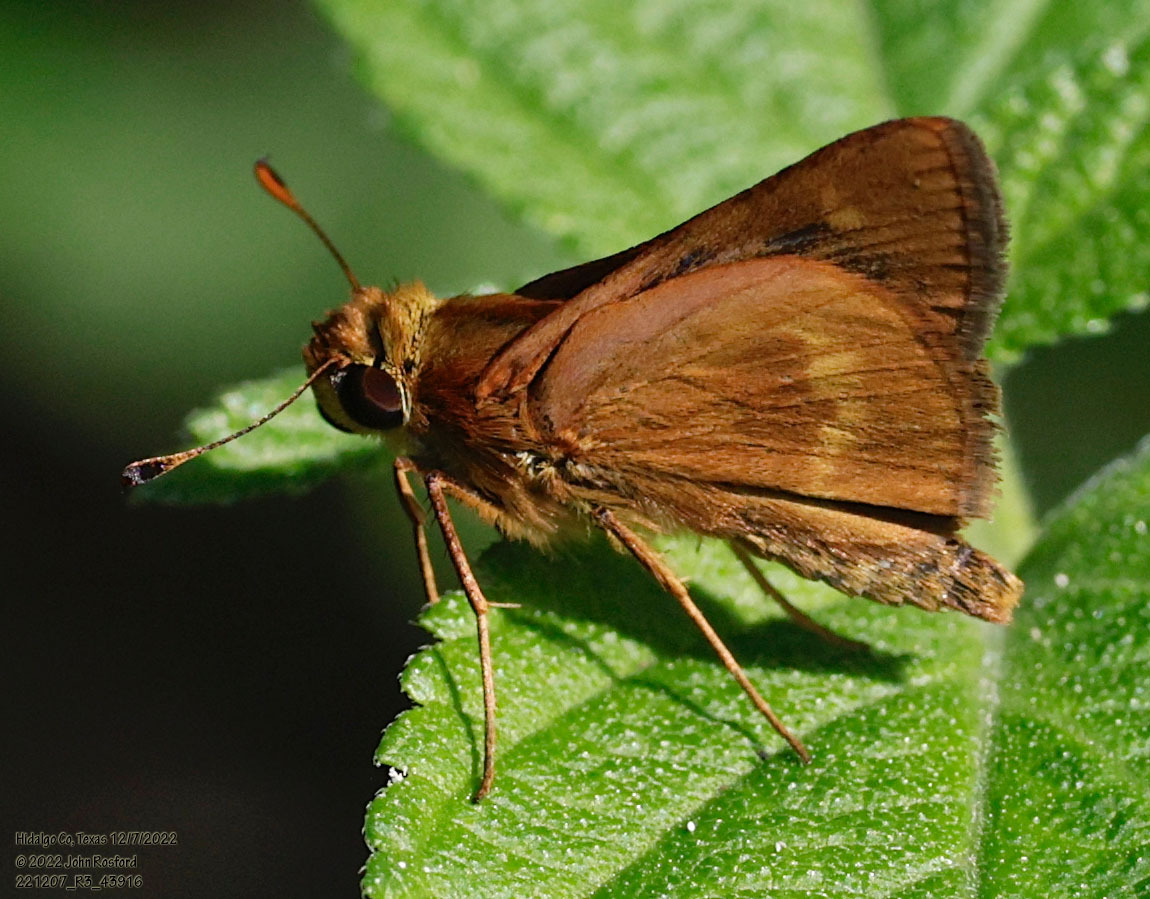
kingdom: Animalia
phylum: Arthropoda
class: Insecta
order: Lepidoptera
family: Hesperiidae
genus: Polites
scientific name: Polites otho
